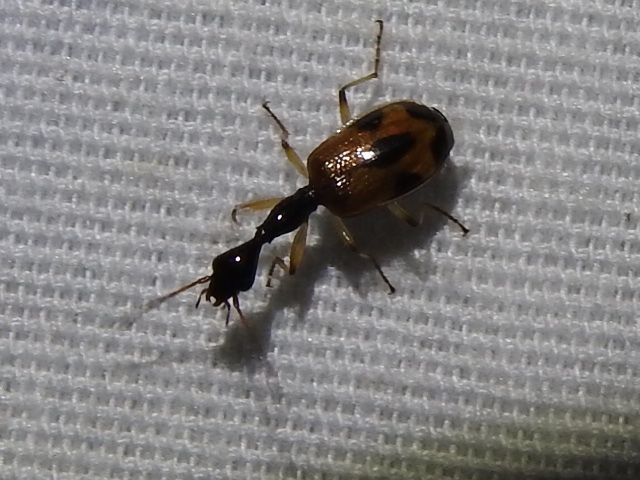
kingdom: Animalia
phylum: Arthropoda
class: Insecta
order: Coleoptera
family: Carabidae
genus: Colliuris
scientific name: Colliuris pensylvanica
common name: Long-necked ground beetle
